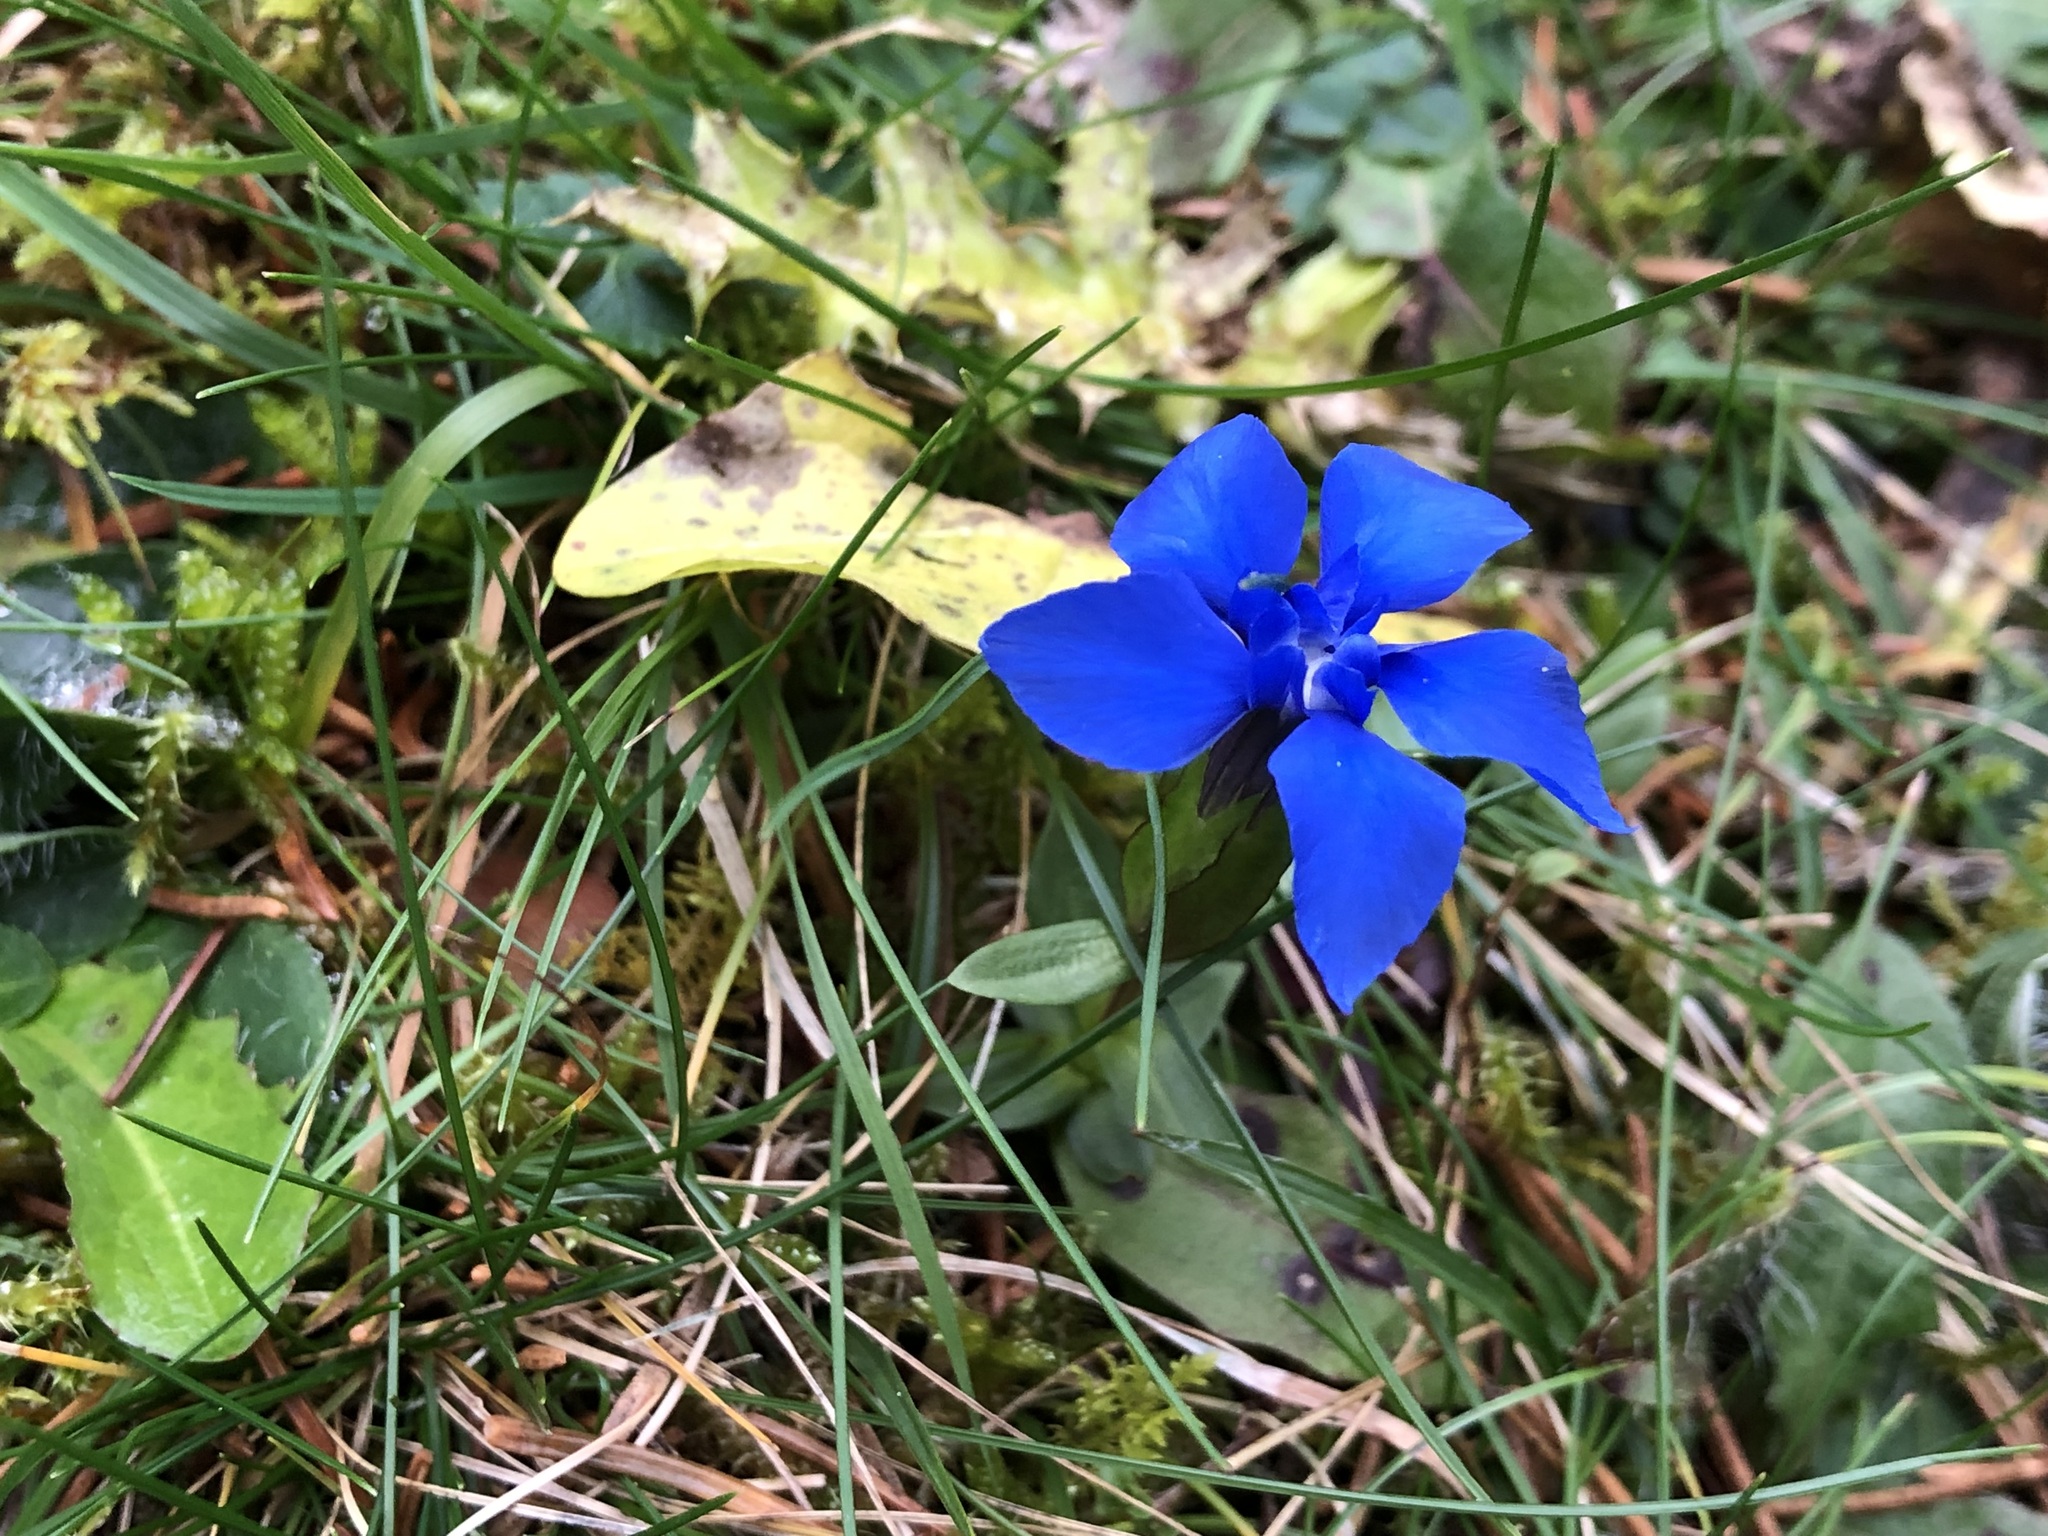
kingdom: Plantae
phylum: Tracheophyta
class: Magnoliopsida
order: Gentianales
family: Gentianaceae
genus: Gentiana
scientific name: Gentiana verna
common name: Spring gentian
